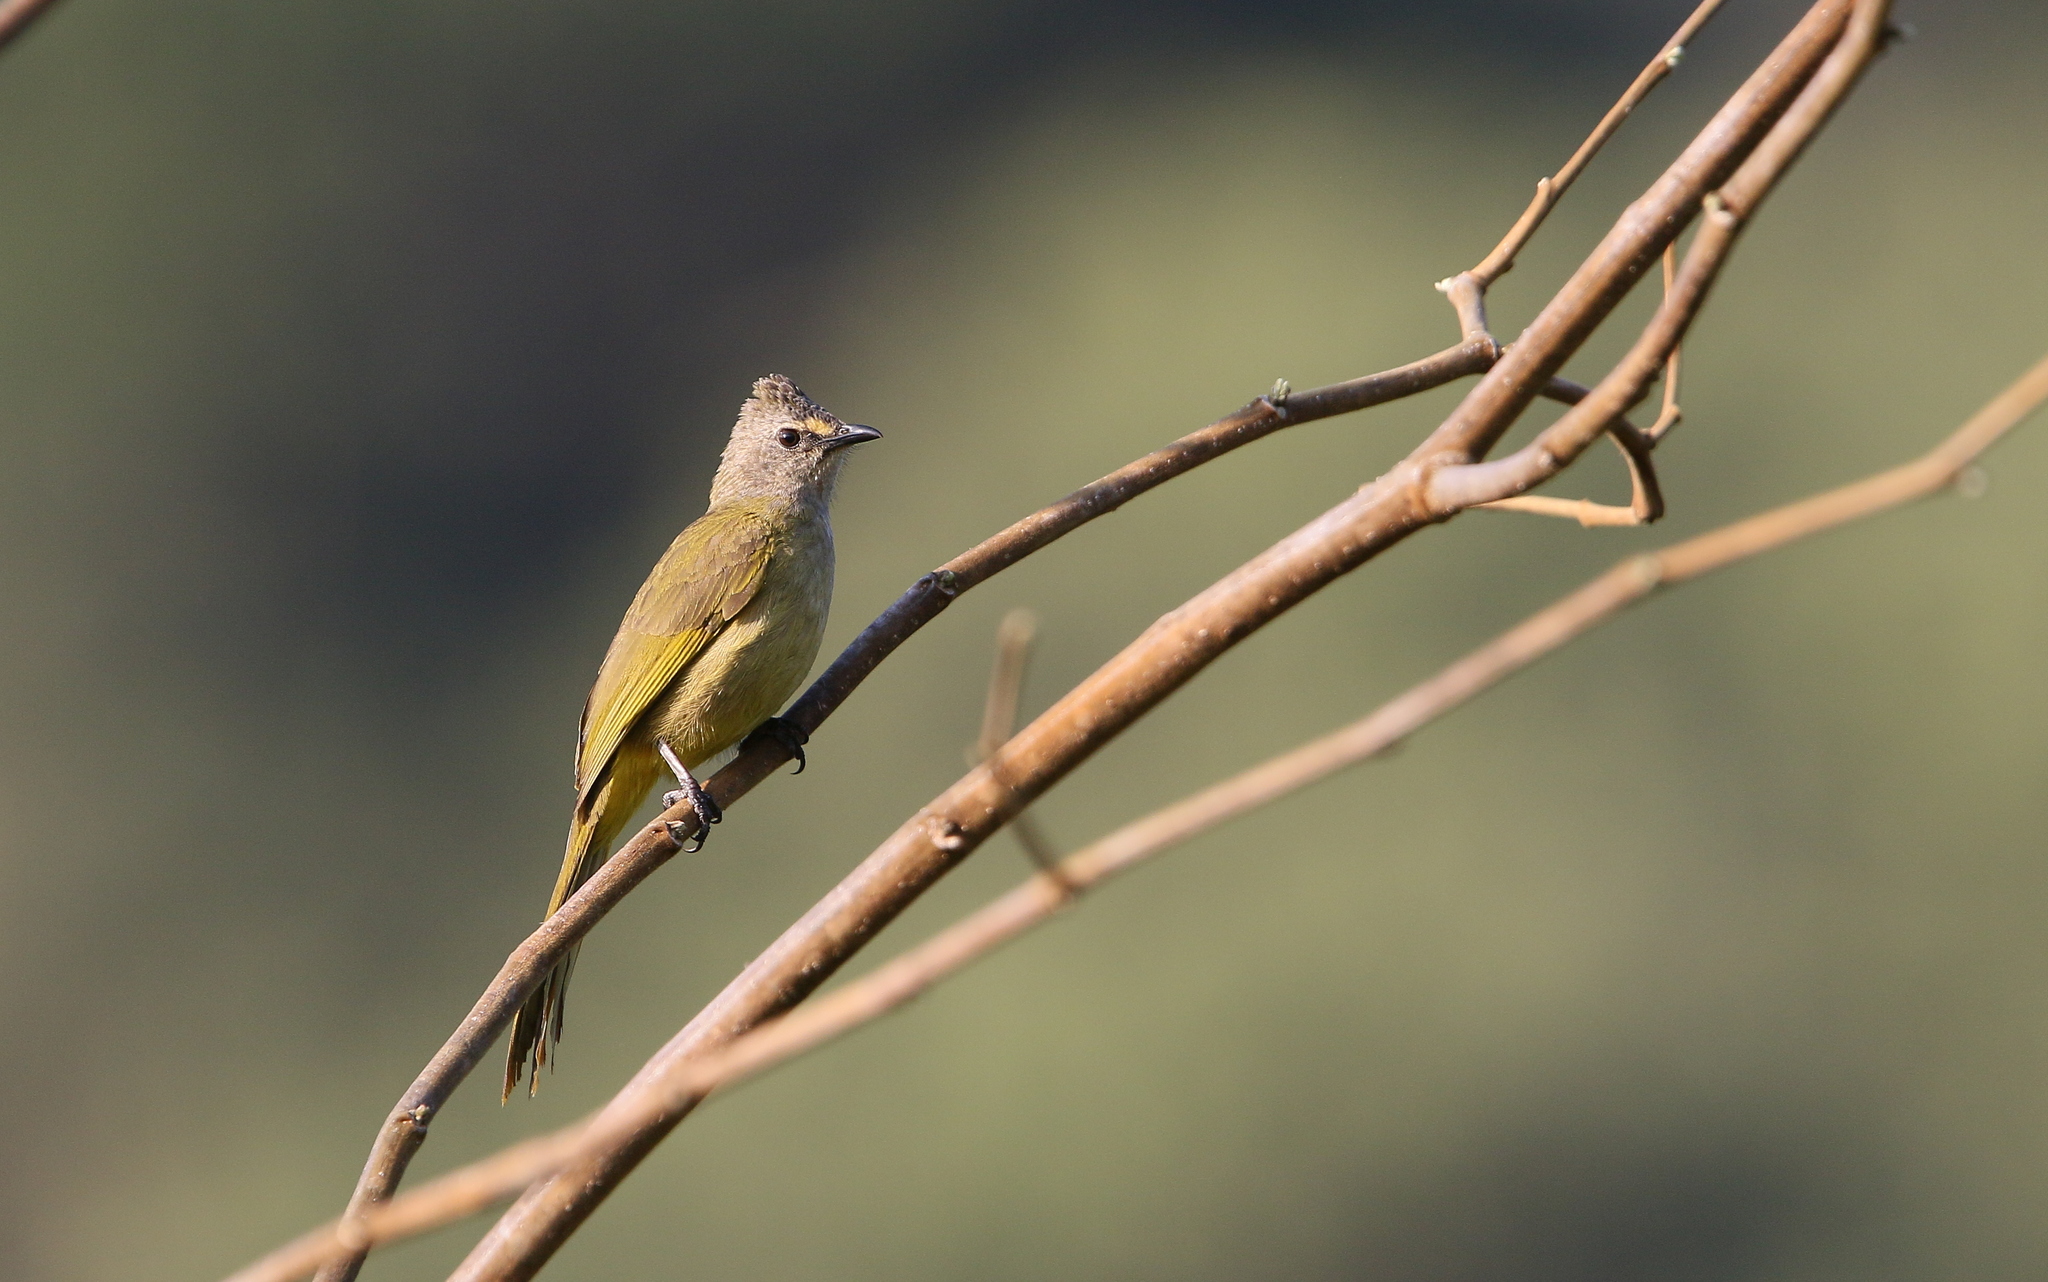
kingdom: Animalia
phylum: Chordata
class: Aves
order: Passeriformes
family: Pycnonotidae
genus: Pycnonotus
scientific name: Pycnonotus flavescens
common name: Flavescent bulbul
